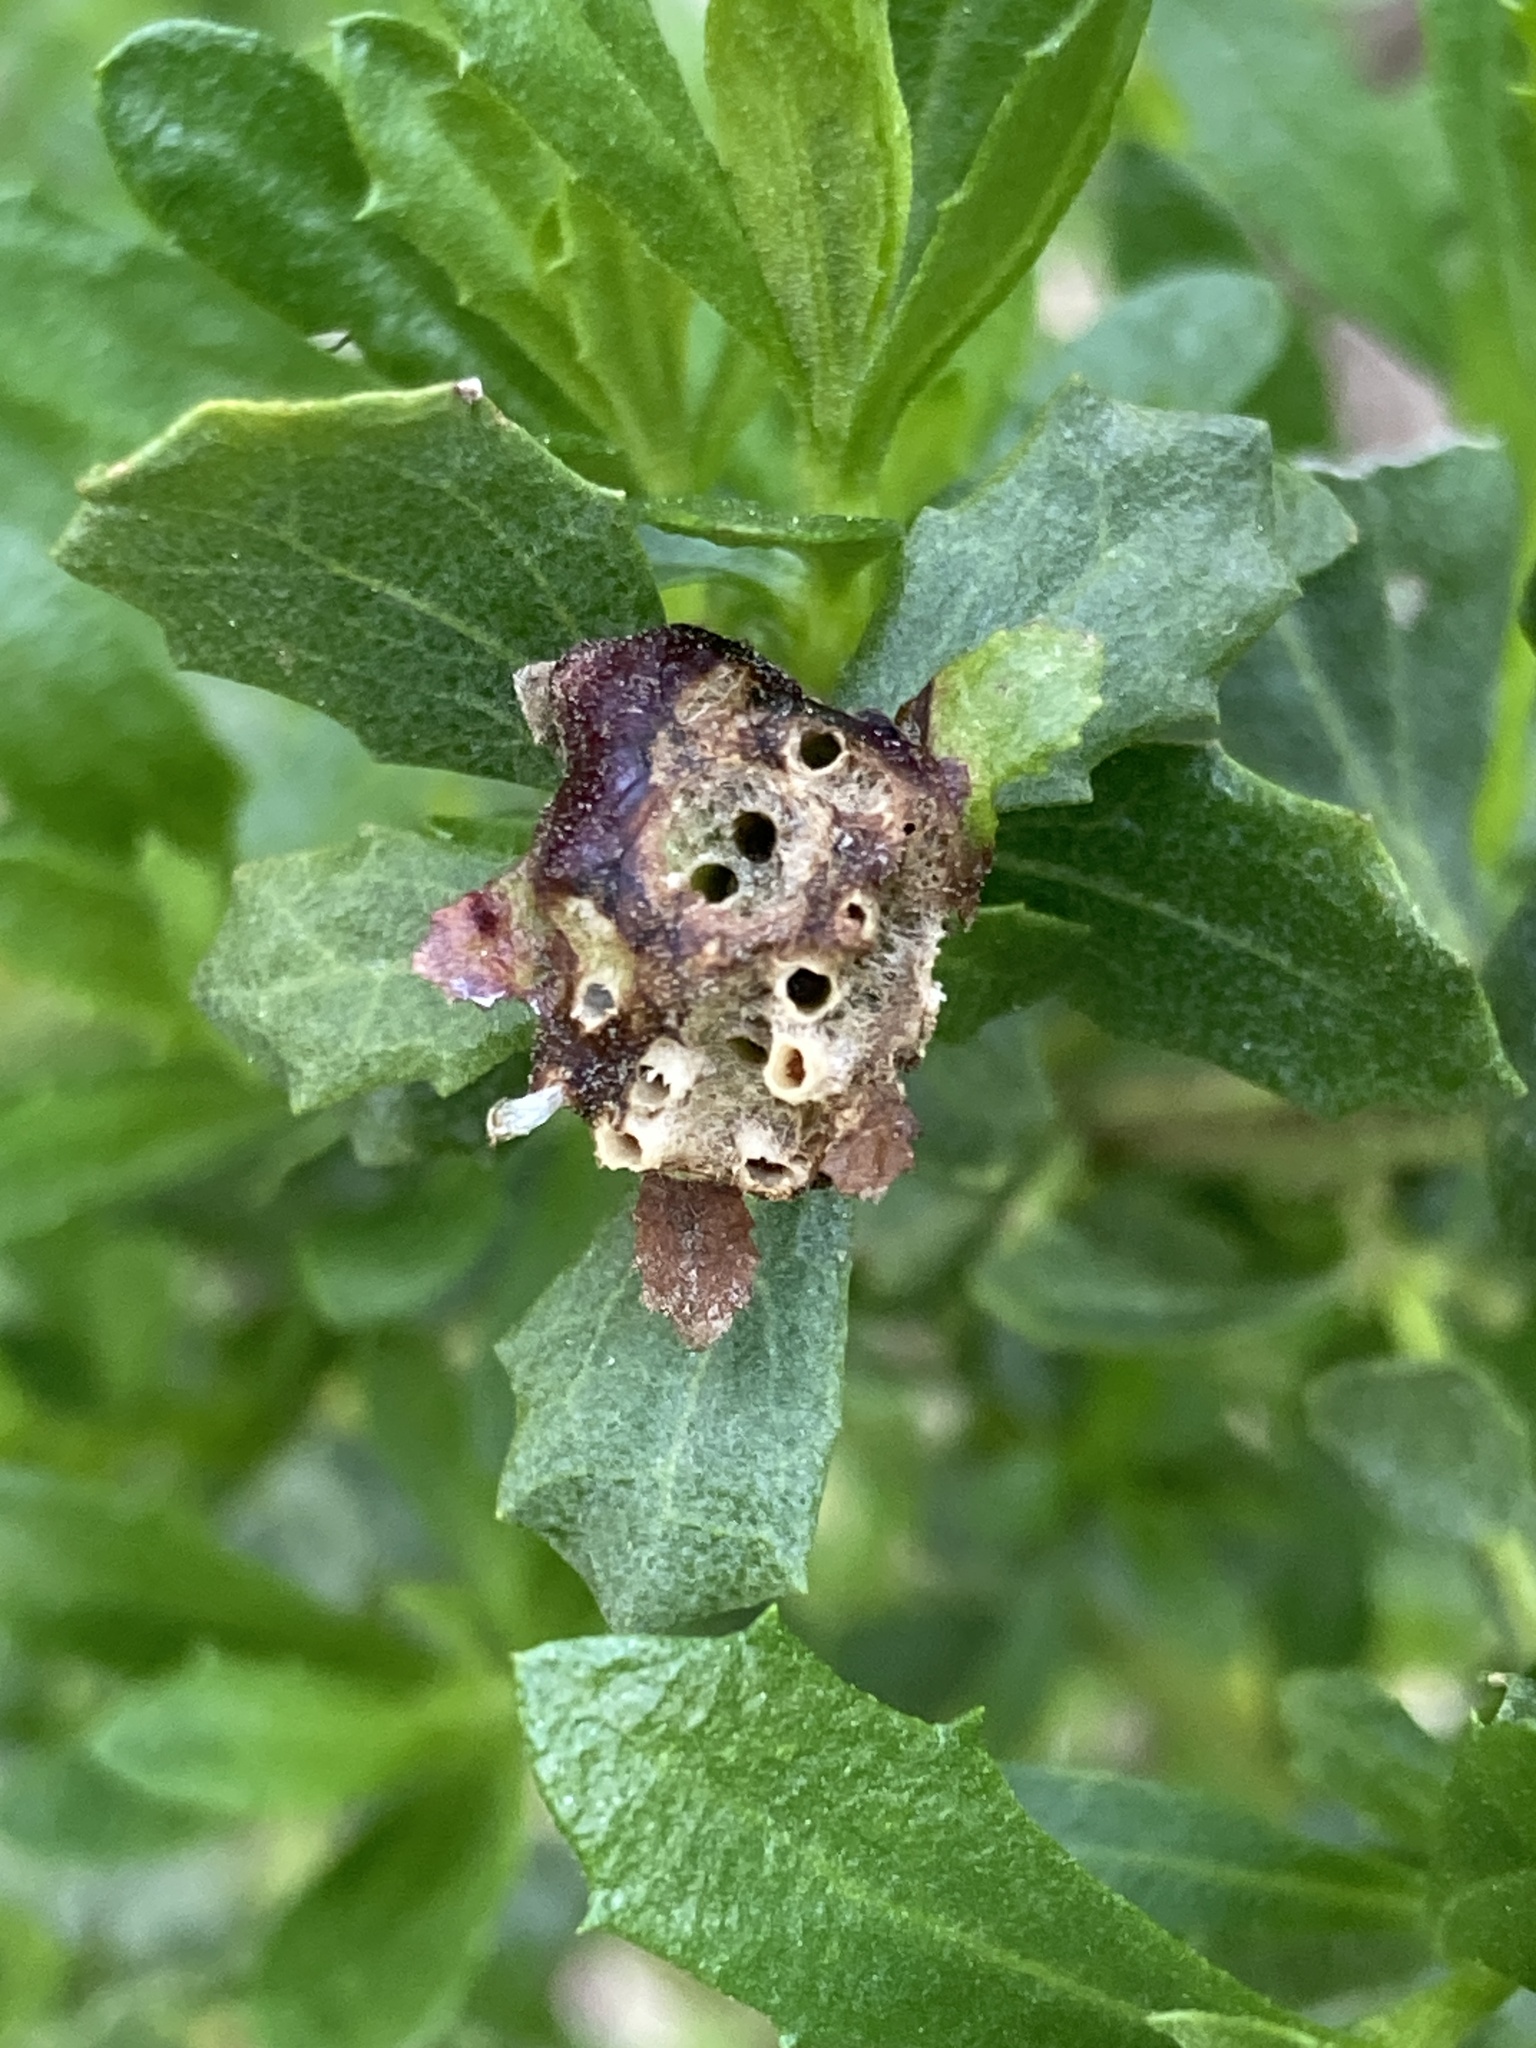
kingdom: Animalia
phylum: Arthropoda
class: Insecta
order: Diptera
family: Cecidomyiidae
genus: Rhopalomyia
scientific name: Rhopalomyia californica
